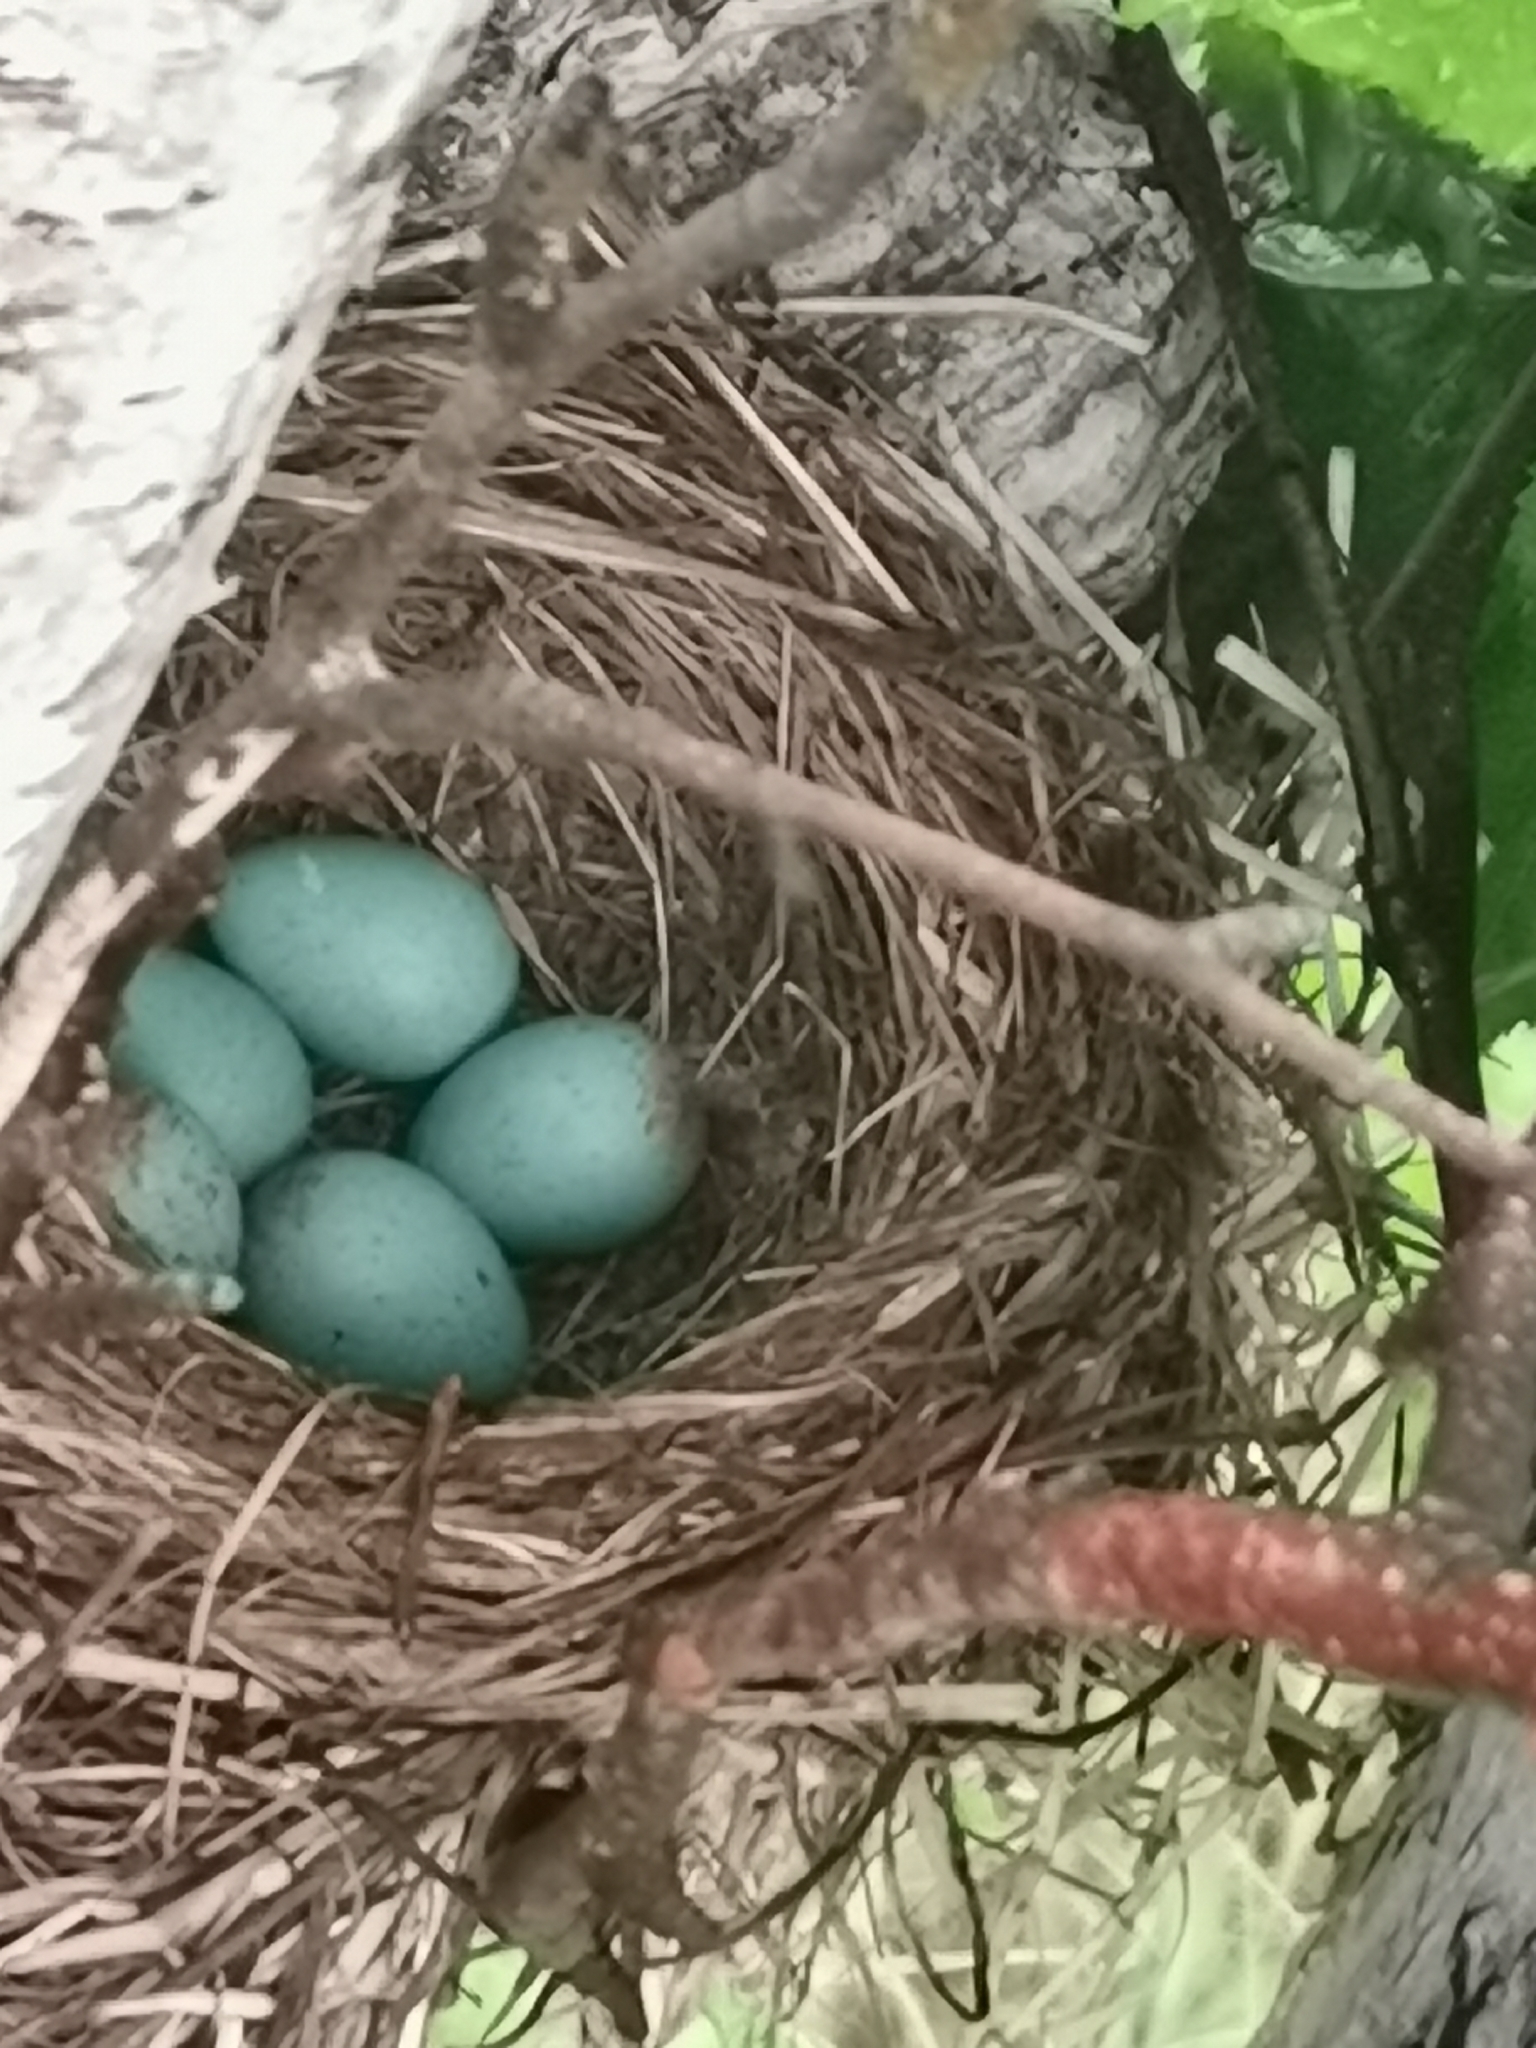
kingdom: Animalia
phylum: Chordata
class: Aves
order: Passeriformes
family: Turdidae
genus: Turdus
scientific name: Turdus obscurus
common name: Eyebrowed thrush
